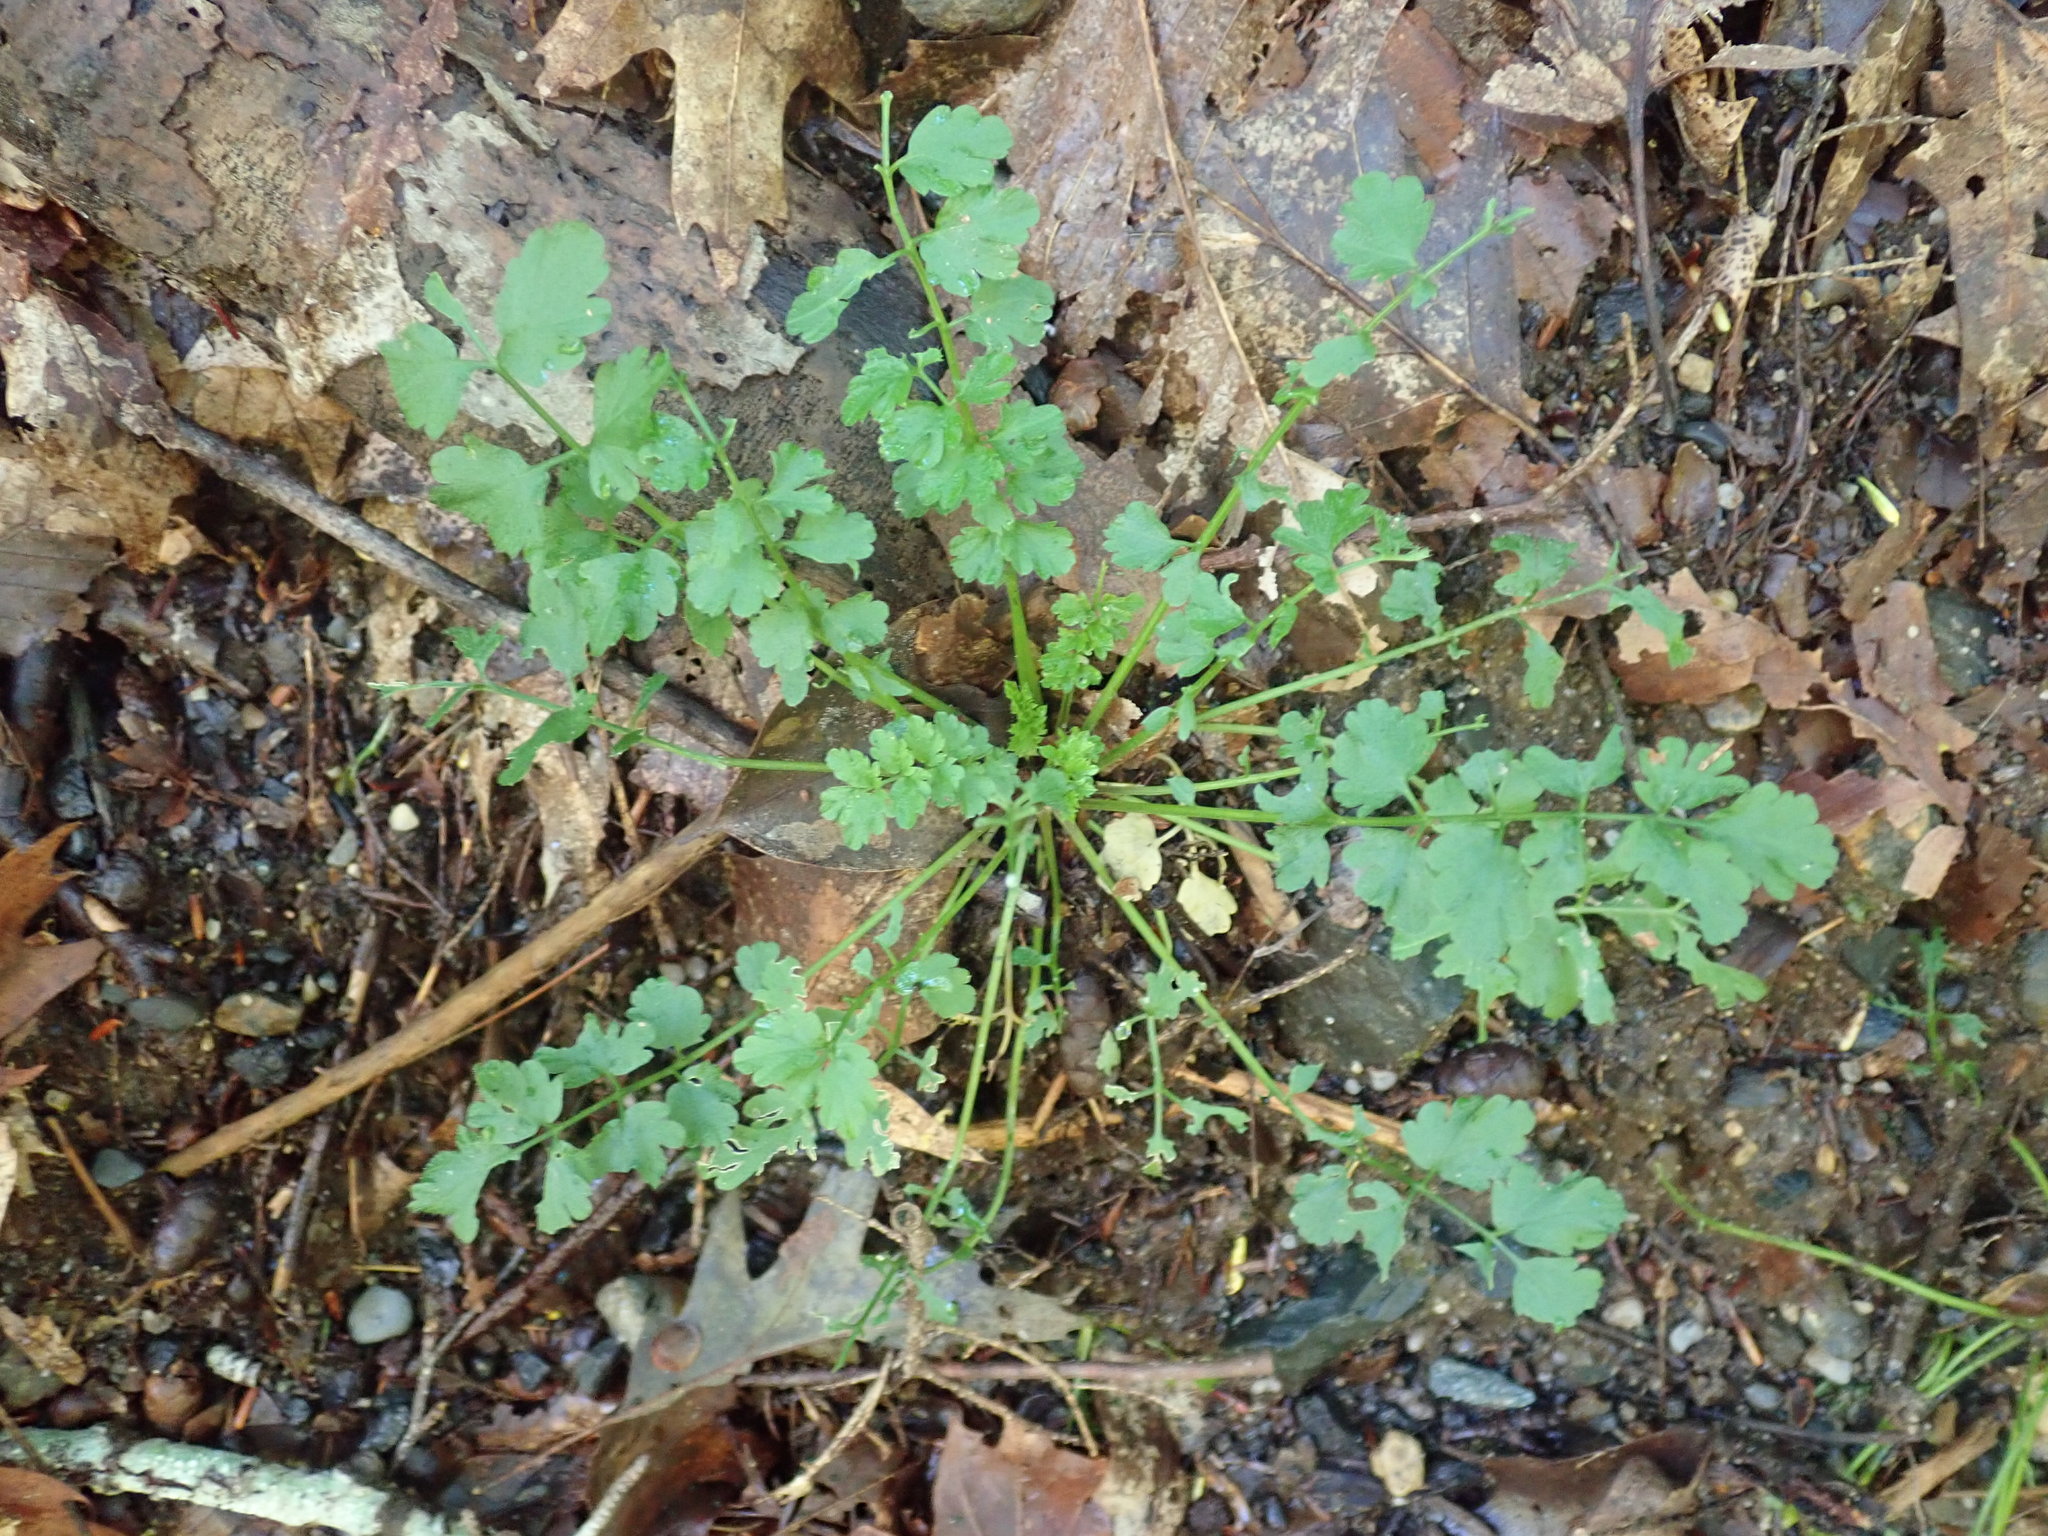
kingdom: Plantae
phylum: Tracheophyta
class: Magnoliopsida
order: Brassicales
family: Brassicaceae
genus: Cardamine
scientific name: Cardamine impatiens
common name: Narrow-leaved bitter-cress
